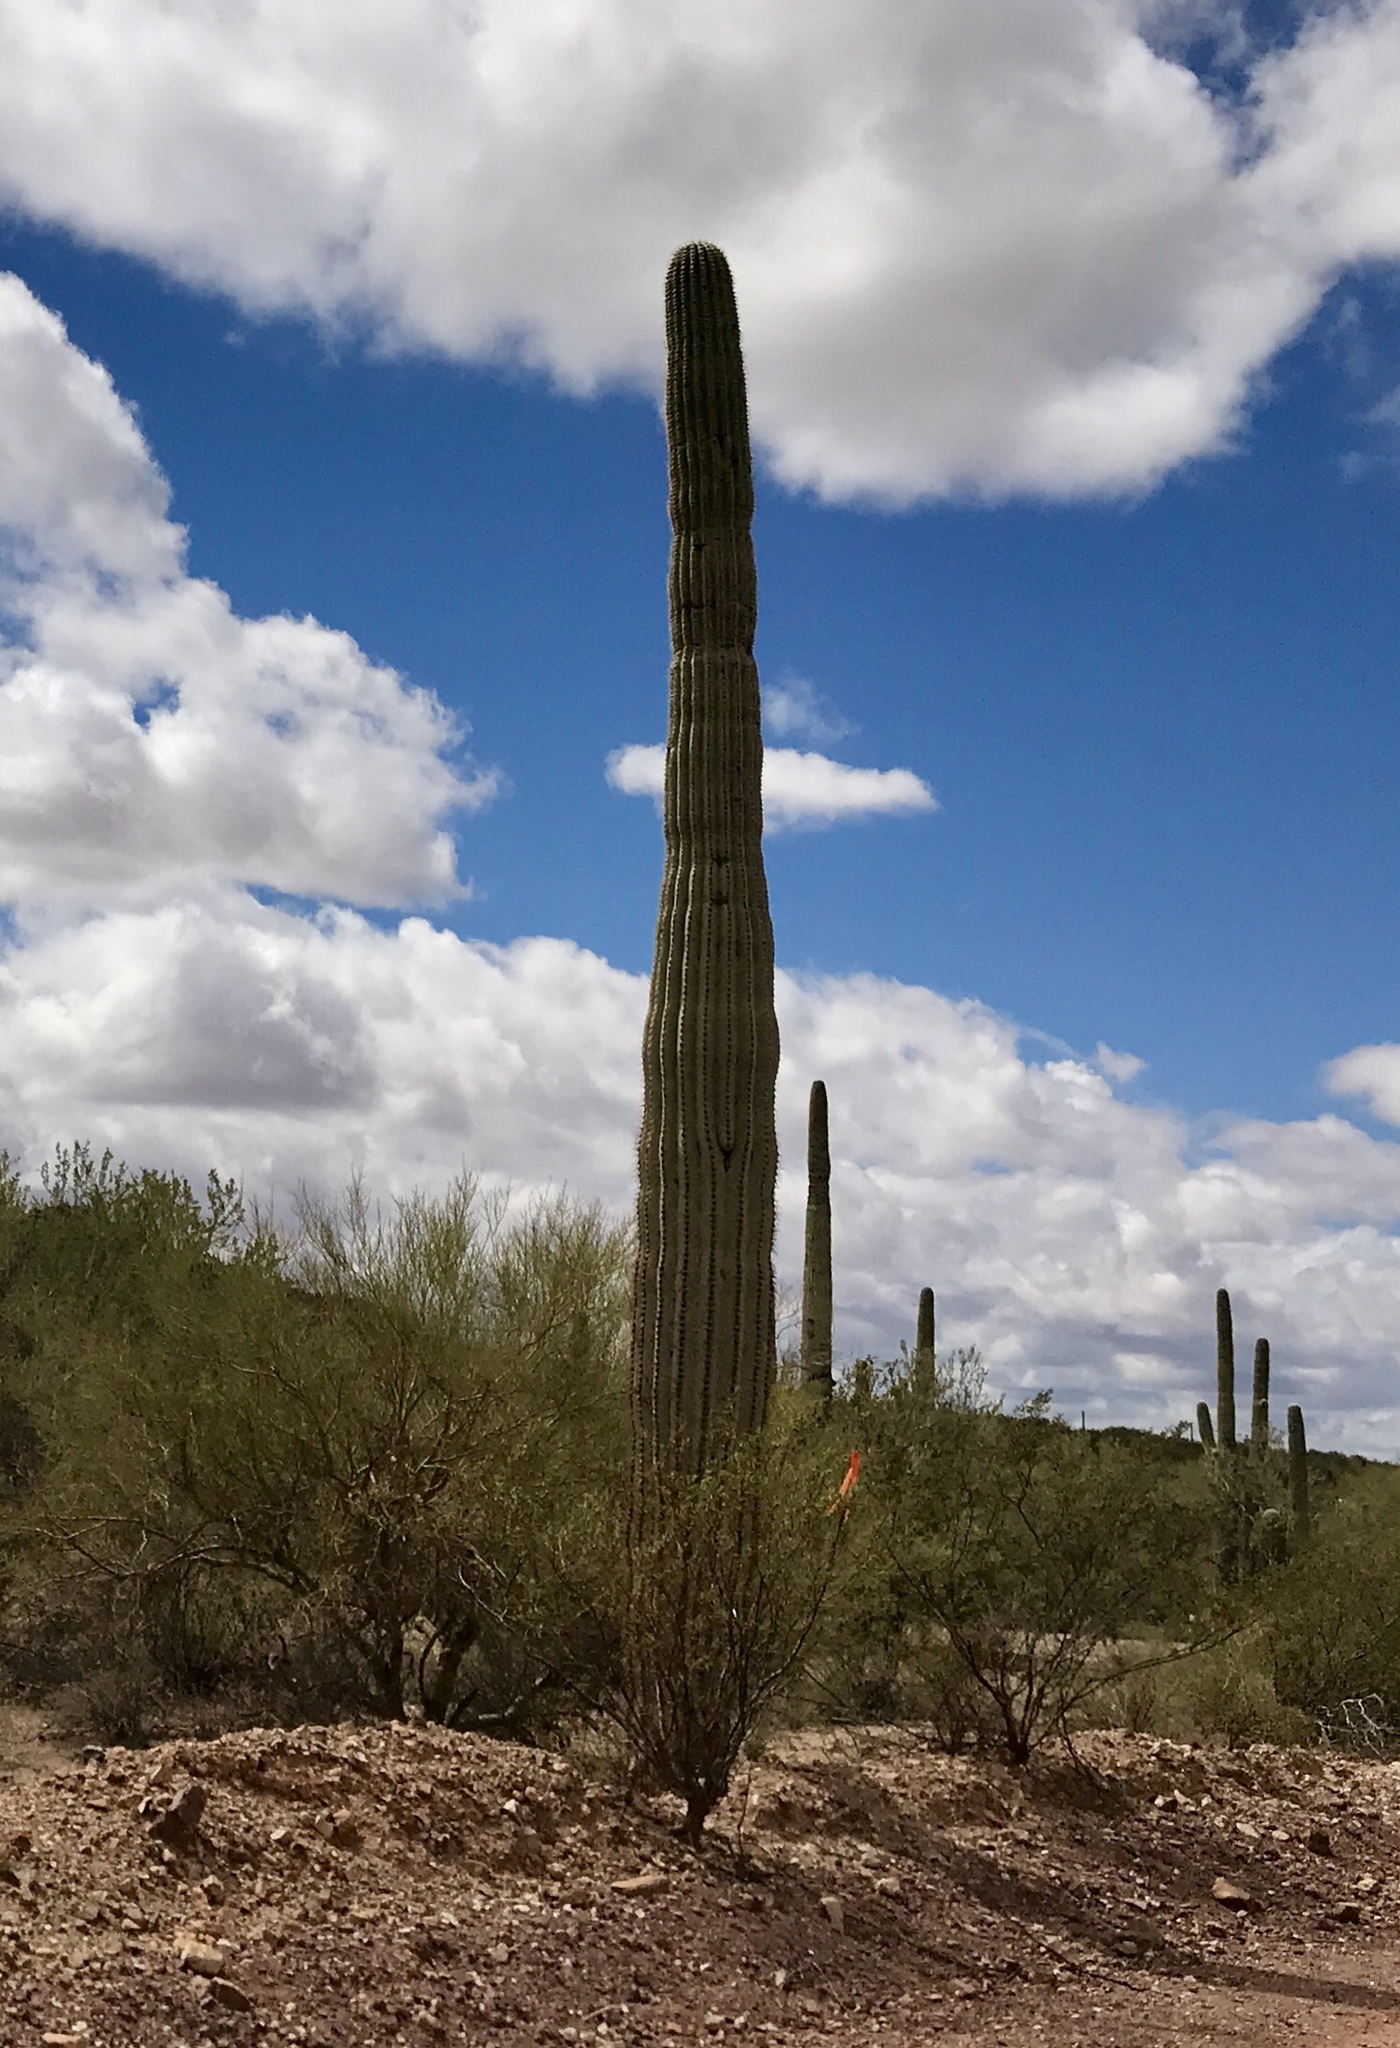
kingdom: Plantae
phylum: Tracheophyta
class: Magnoliopsida
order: Caryophyllales
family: Cactaceae
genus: Carnegiea
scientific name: Carnegiea gigantea
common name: Saguaro
